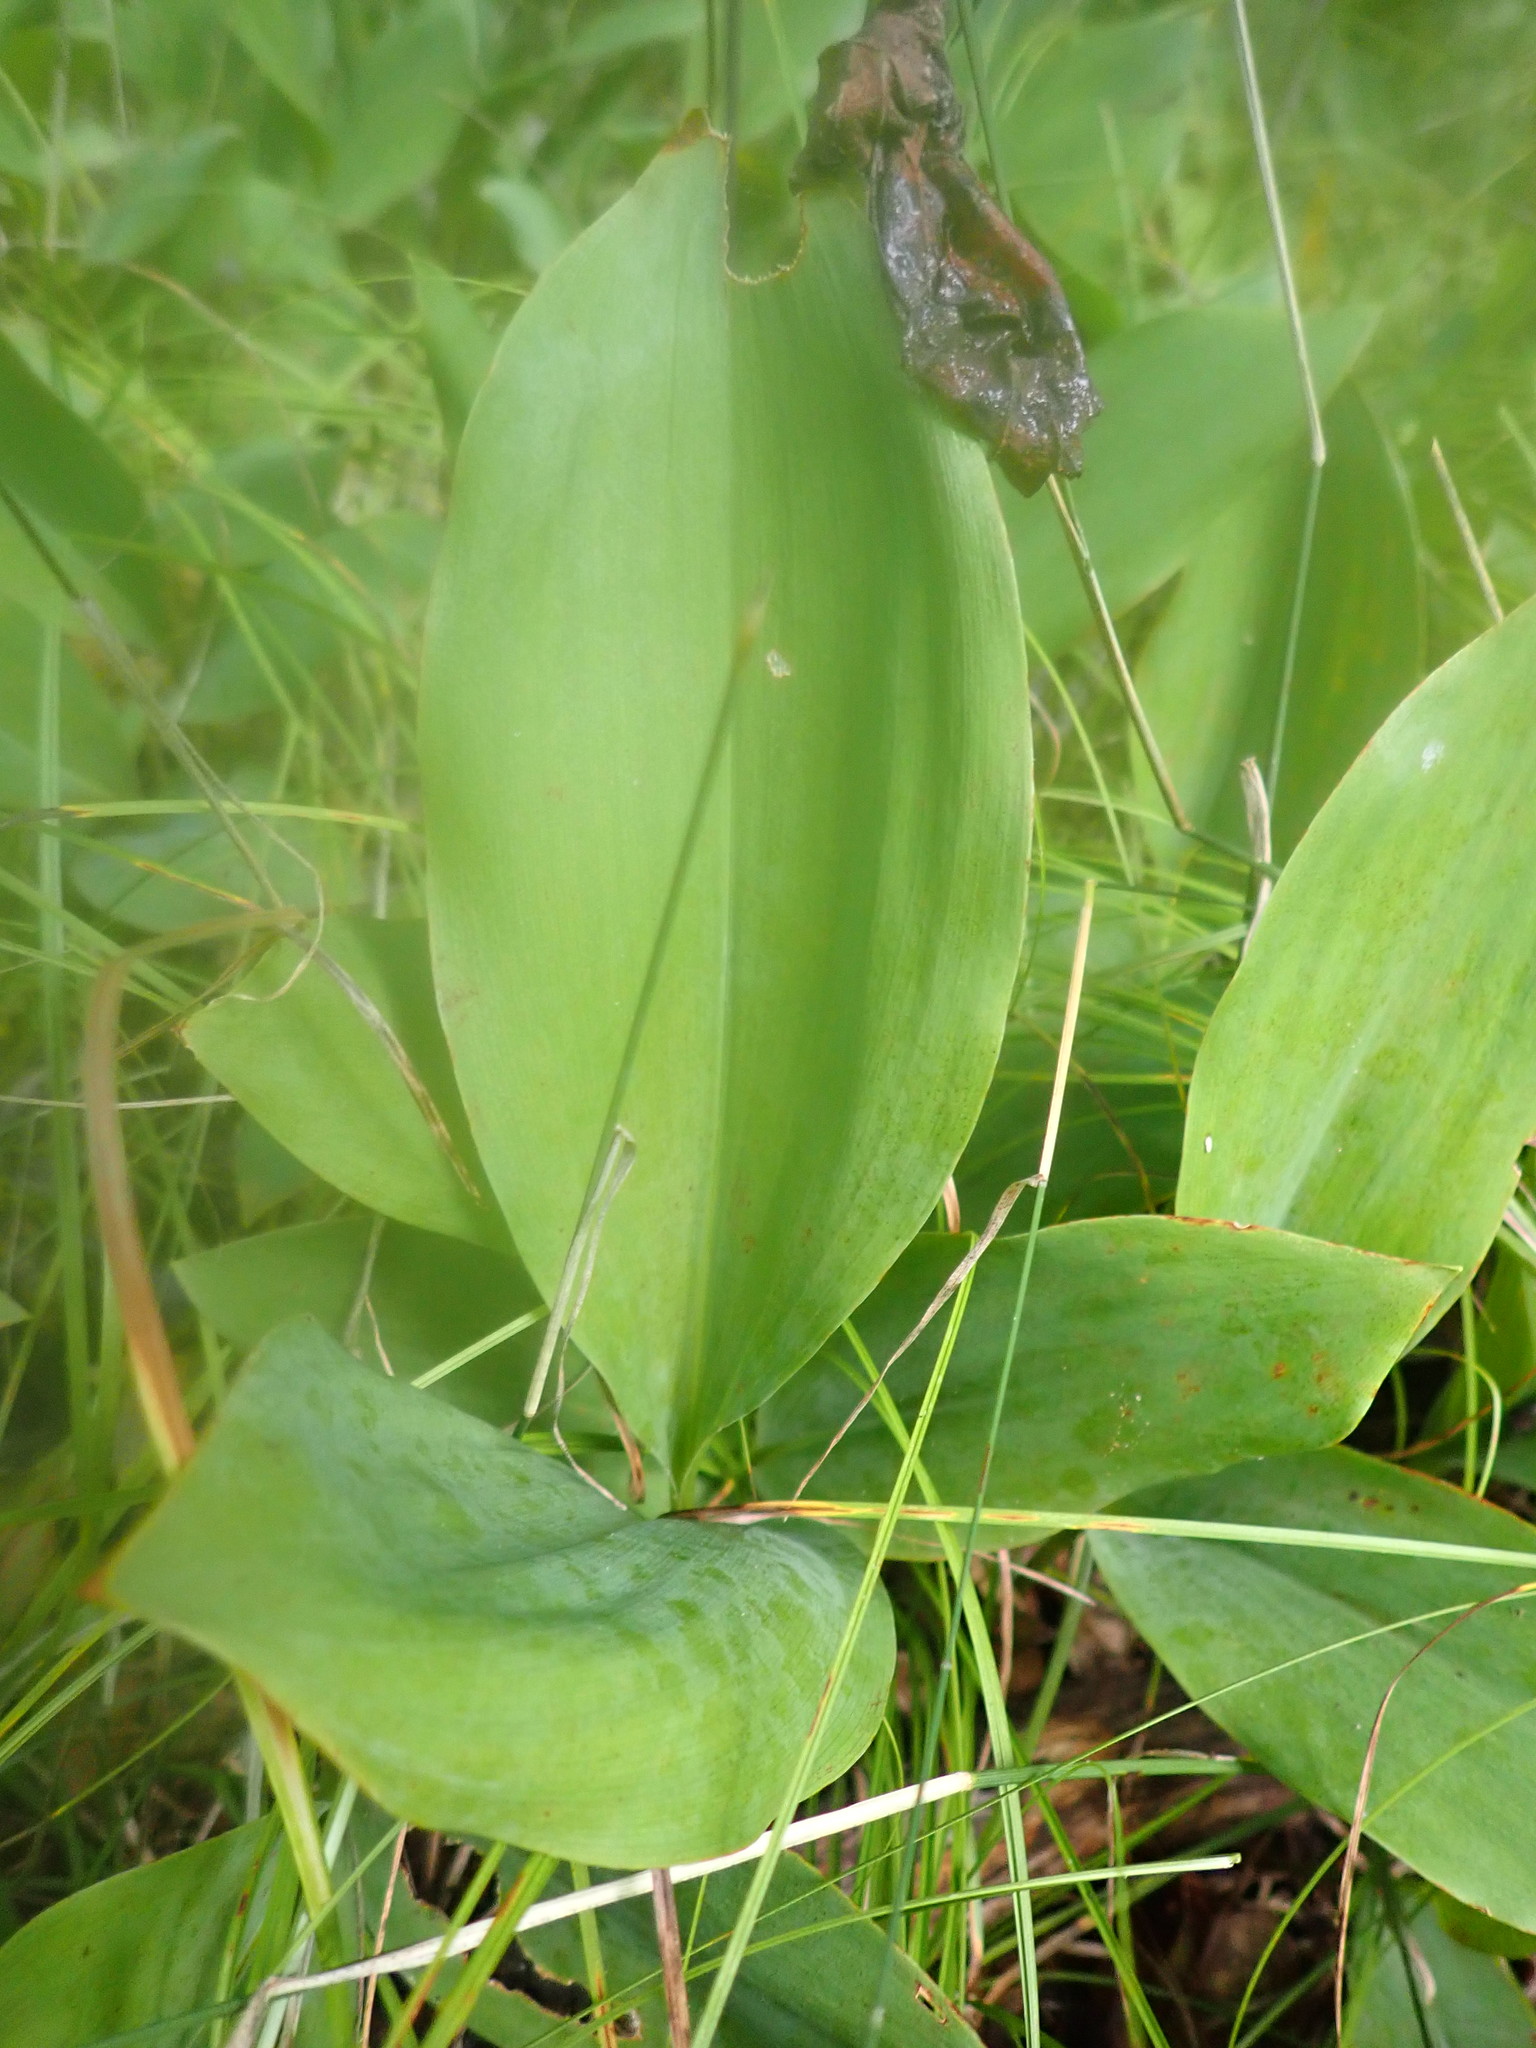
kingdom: Plantae
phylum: Tracheophyta
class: Liliopsida
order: Asparagales
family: Asparagaceae
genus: Convallaria
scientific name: Convallaria majalis
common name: Lily-of-the-valley
